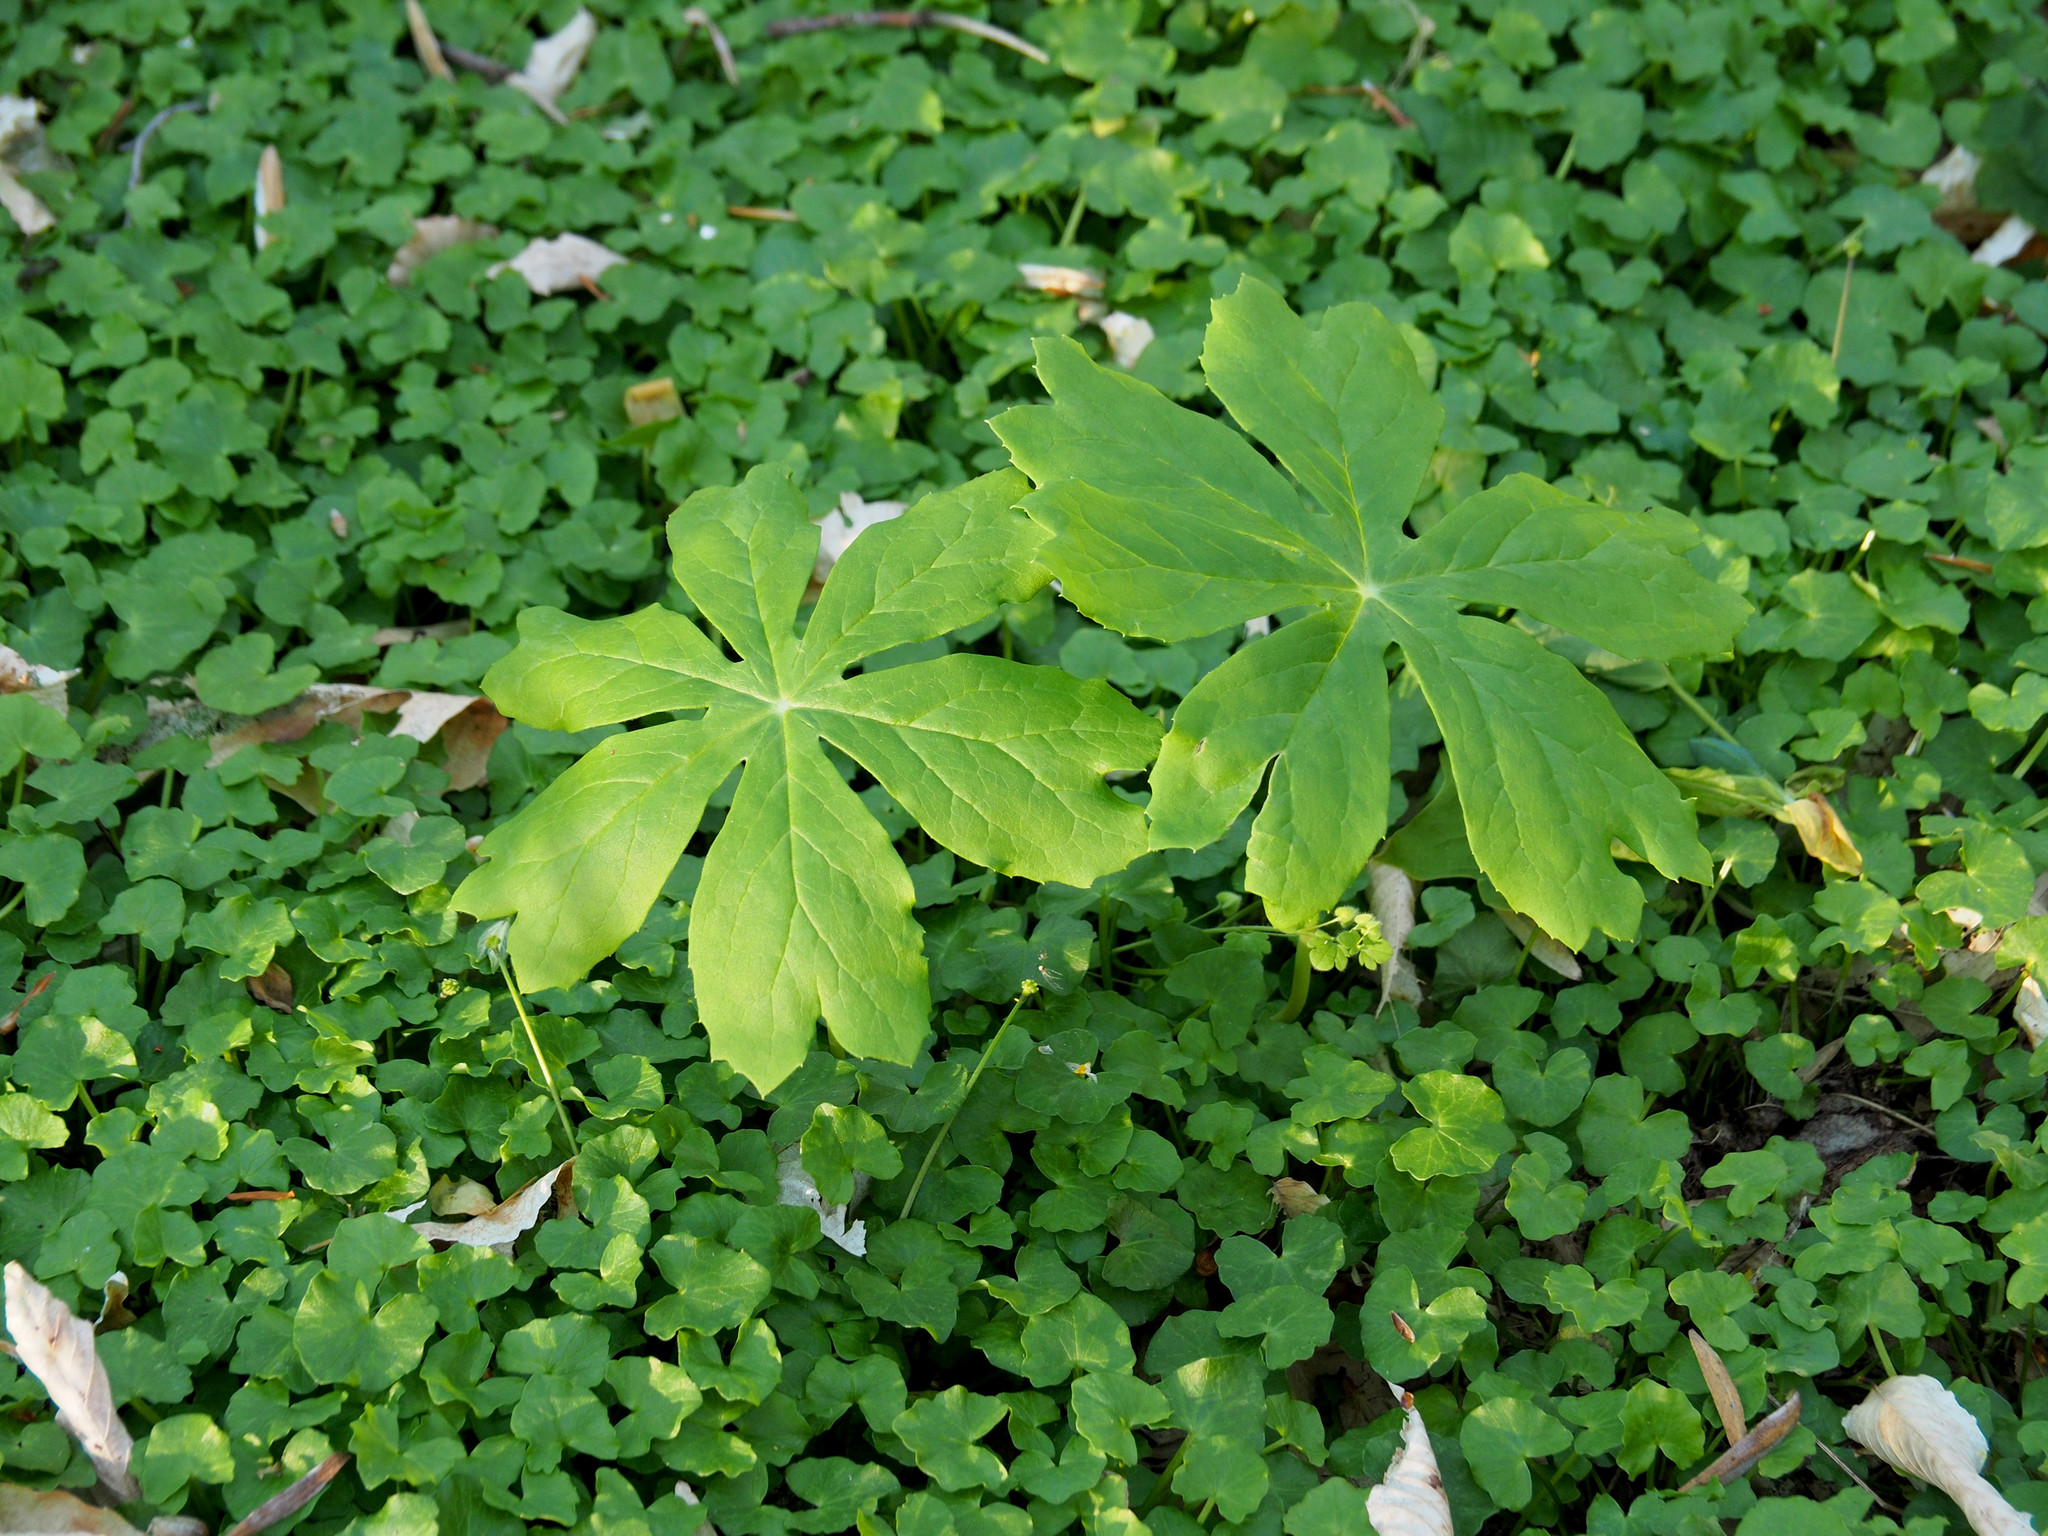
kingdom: Plantae
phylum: Tracheophyta
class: Magnoliopsida
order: Ranunculales
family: Berberidaceae
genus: Podophyllum
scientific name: Podophyllum peltatum
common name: Wild mandrake
